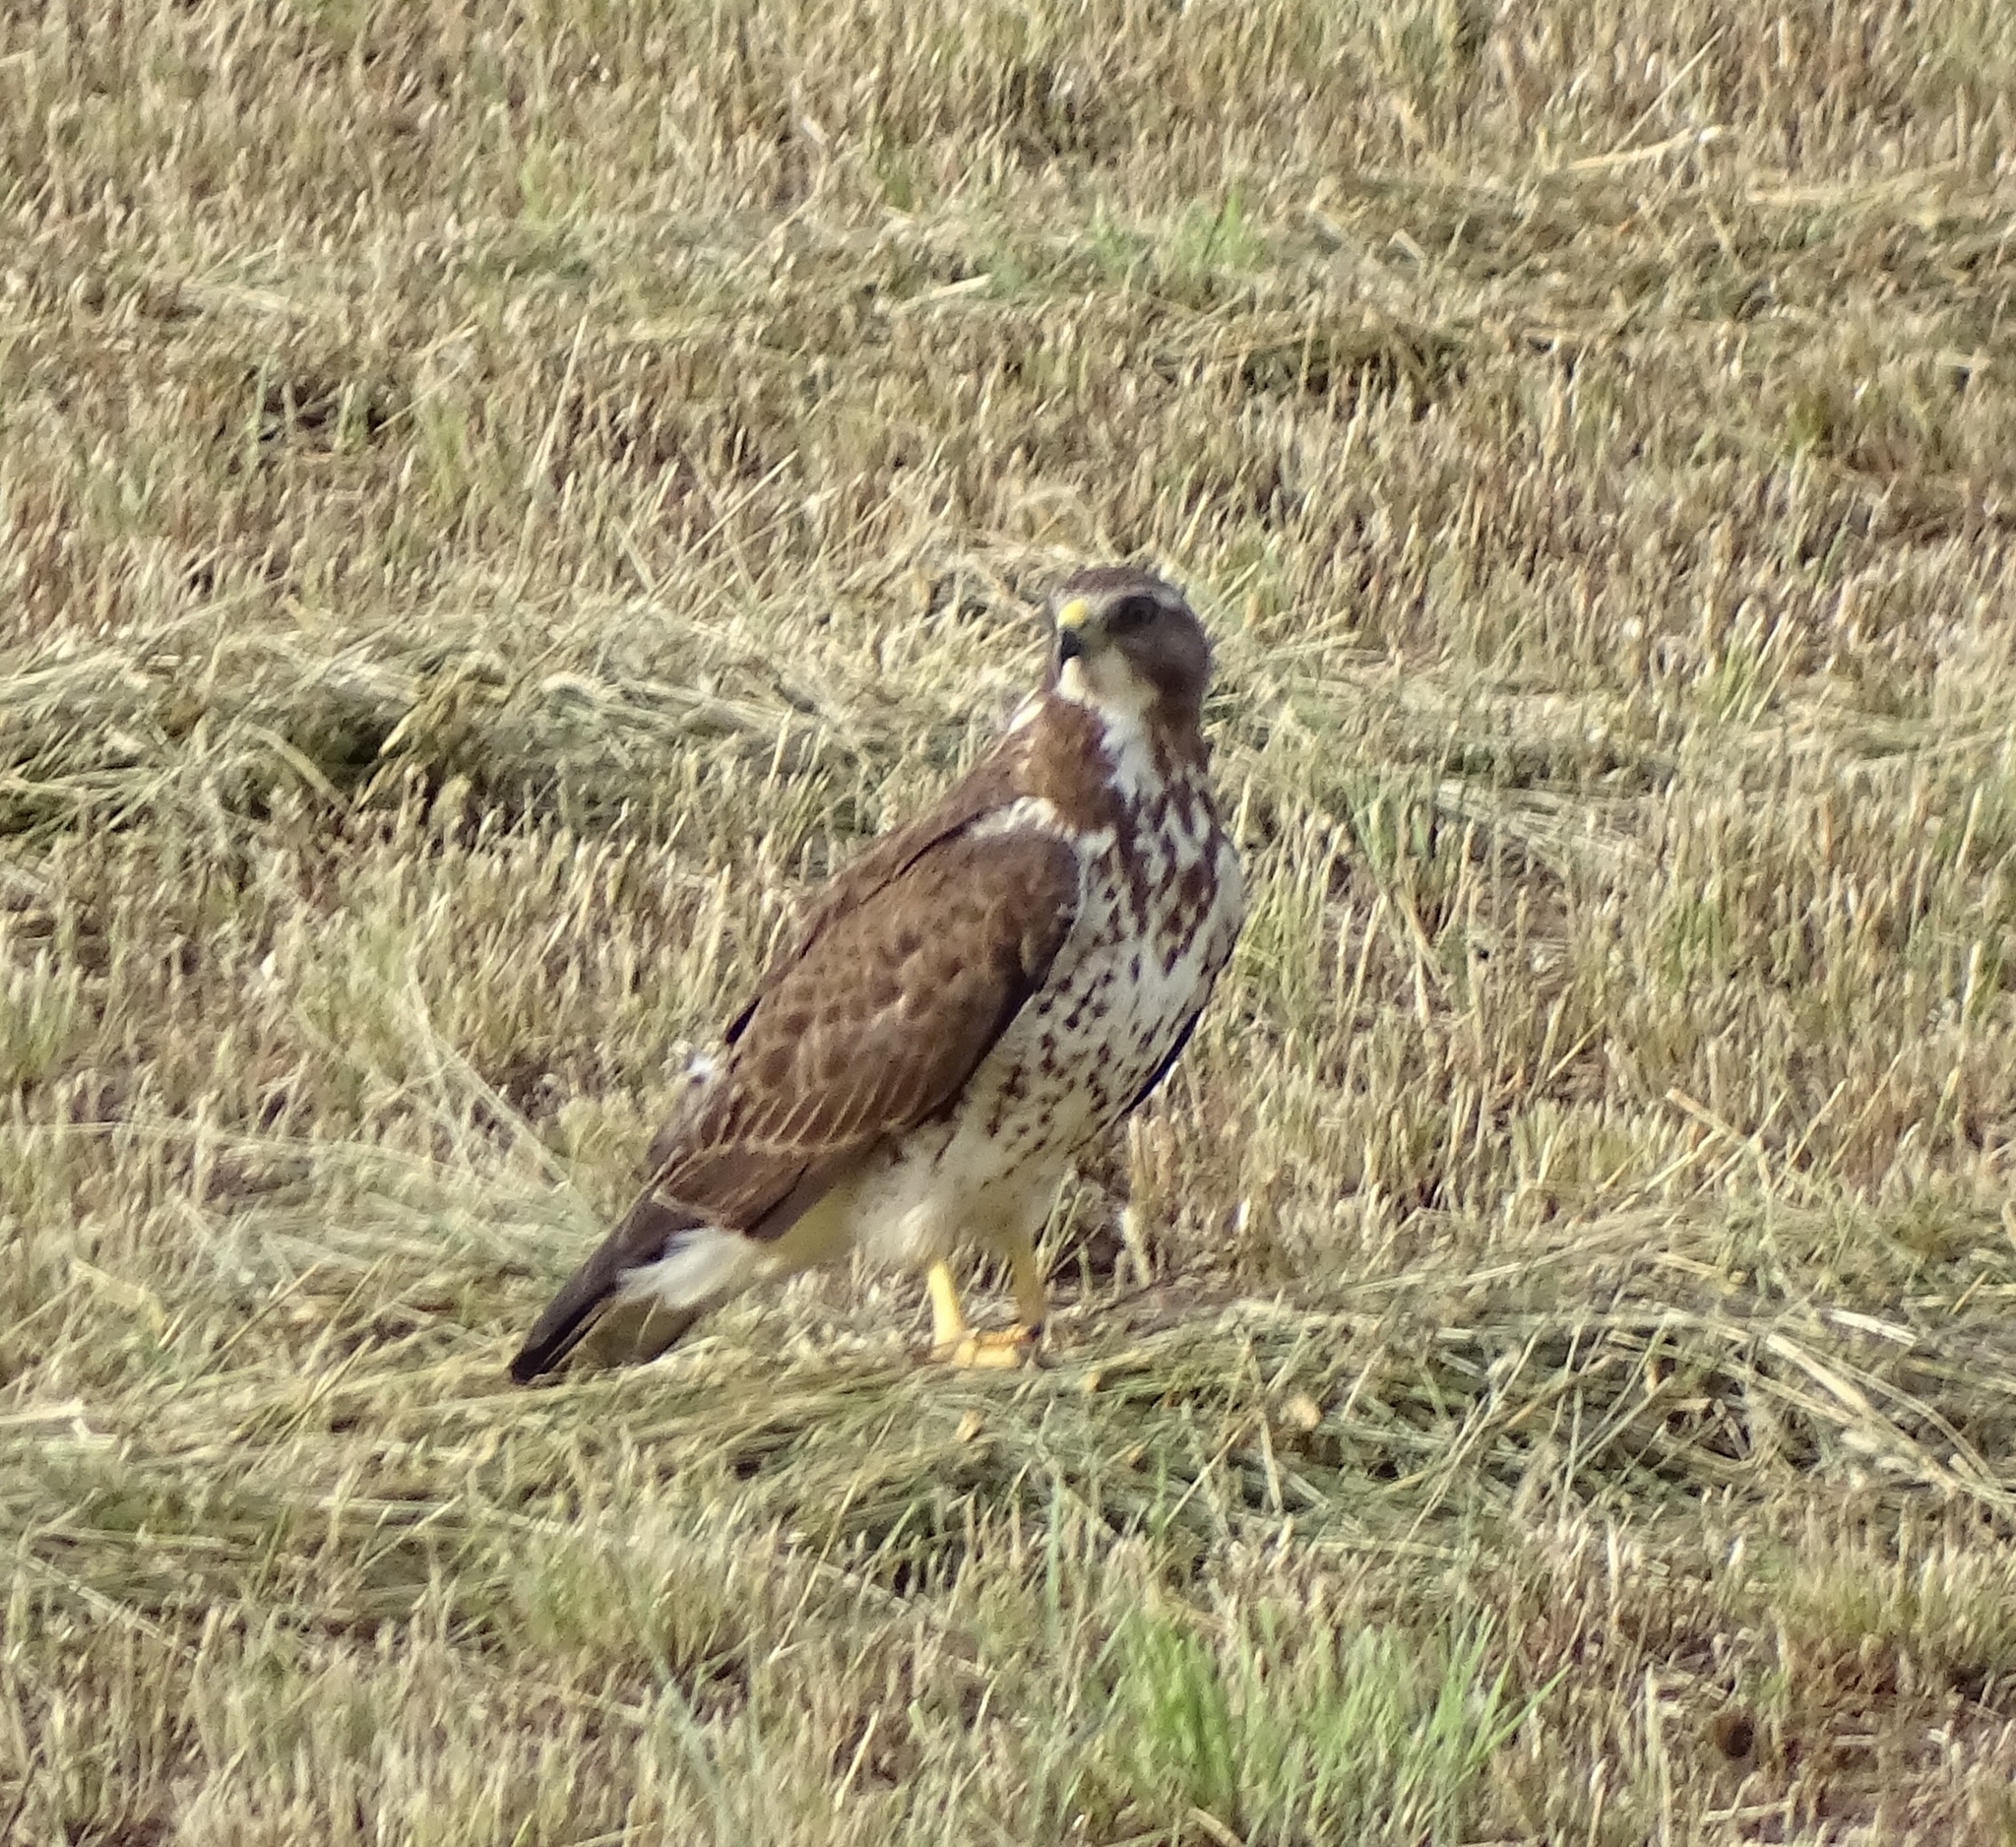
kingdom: Animalia
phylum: Chordata
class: Aves
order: Accipitriformes
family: Accipitridae
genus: Buteo
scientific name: Buteo swainsoni
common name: Swainson's hawk
